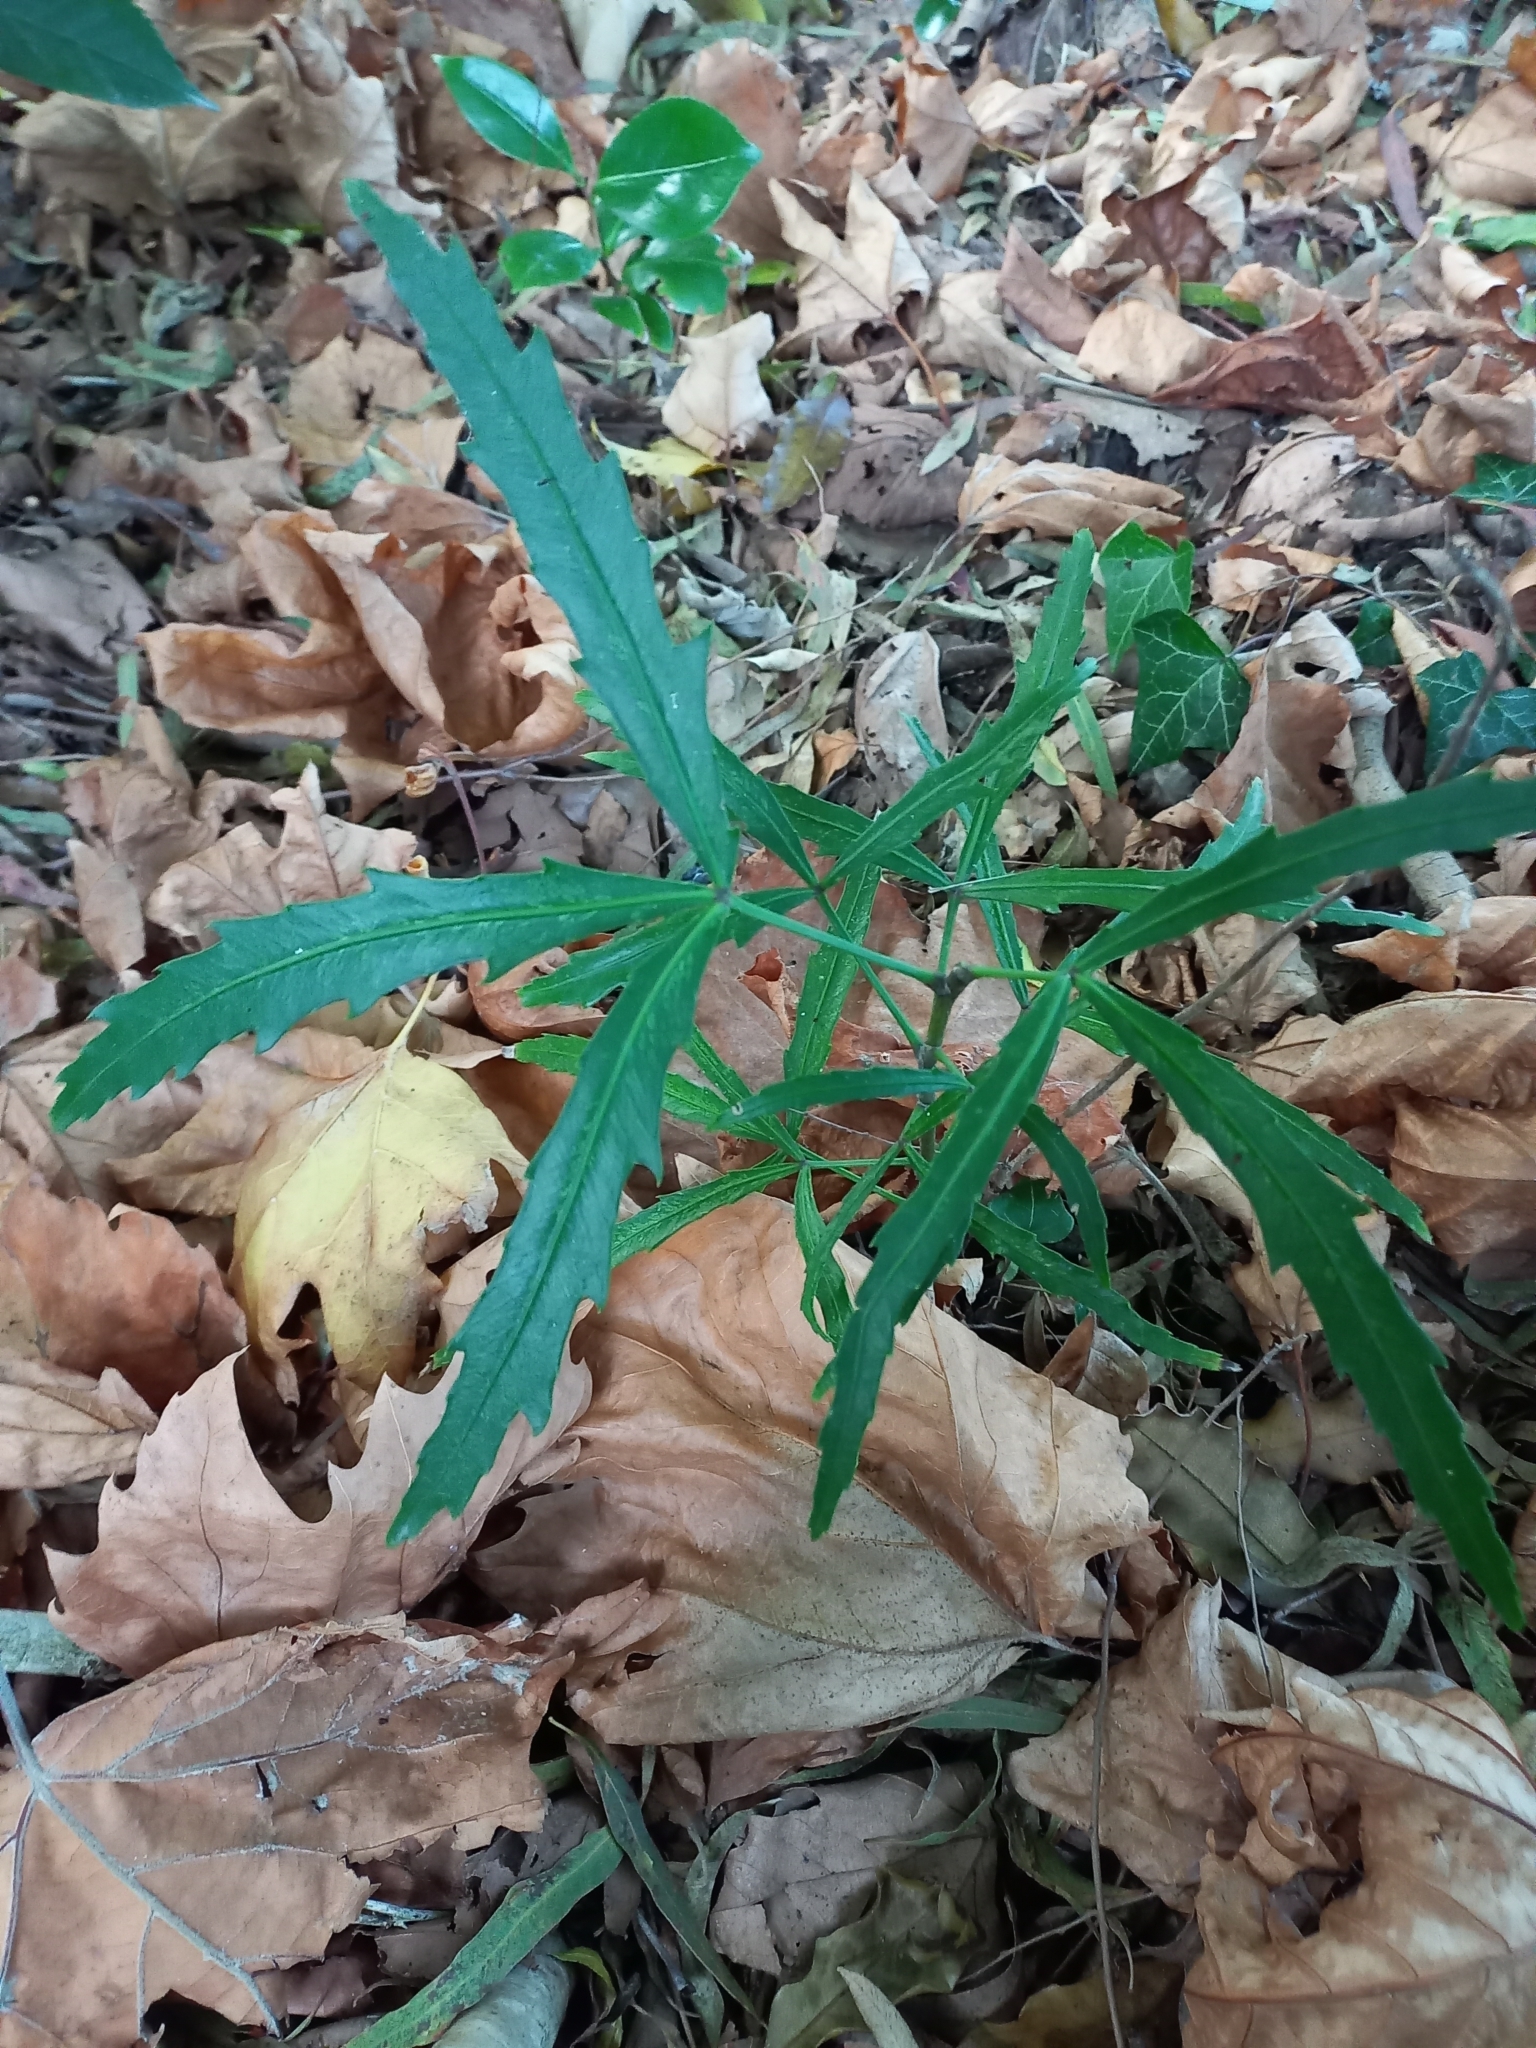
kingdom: Plantae
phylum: Tracheophyta
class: Magnoliopsida
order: Apiales
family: Araliaceae
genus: Pseudopanax
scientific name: Pseudopanax
